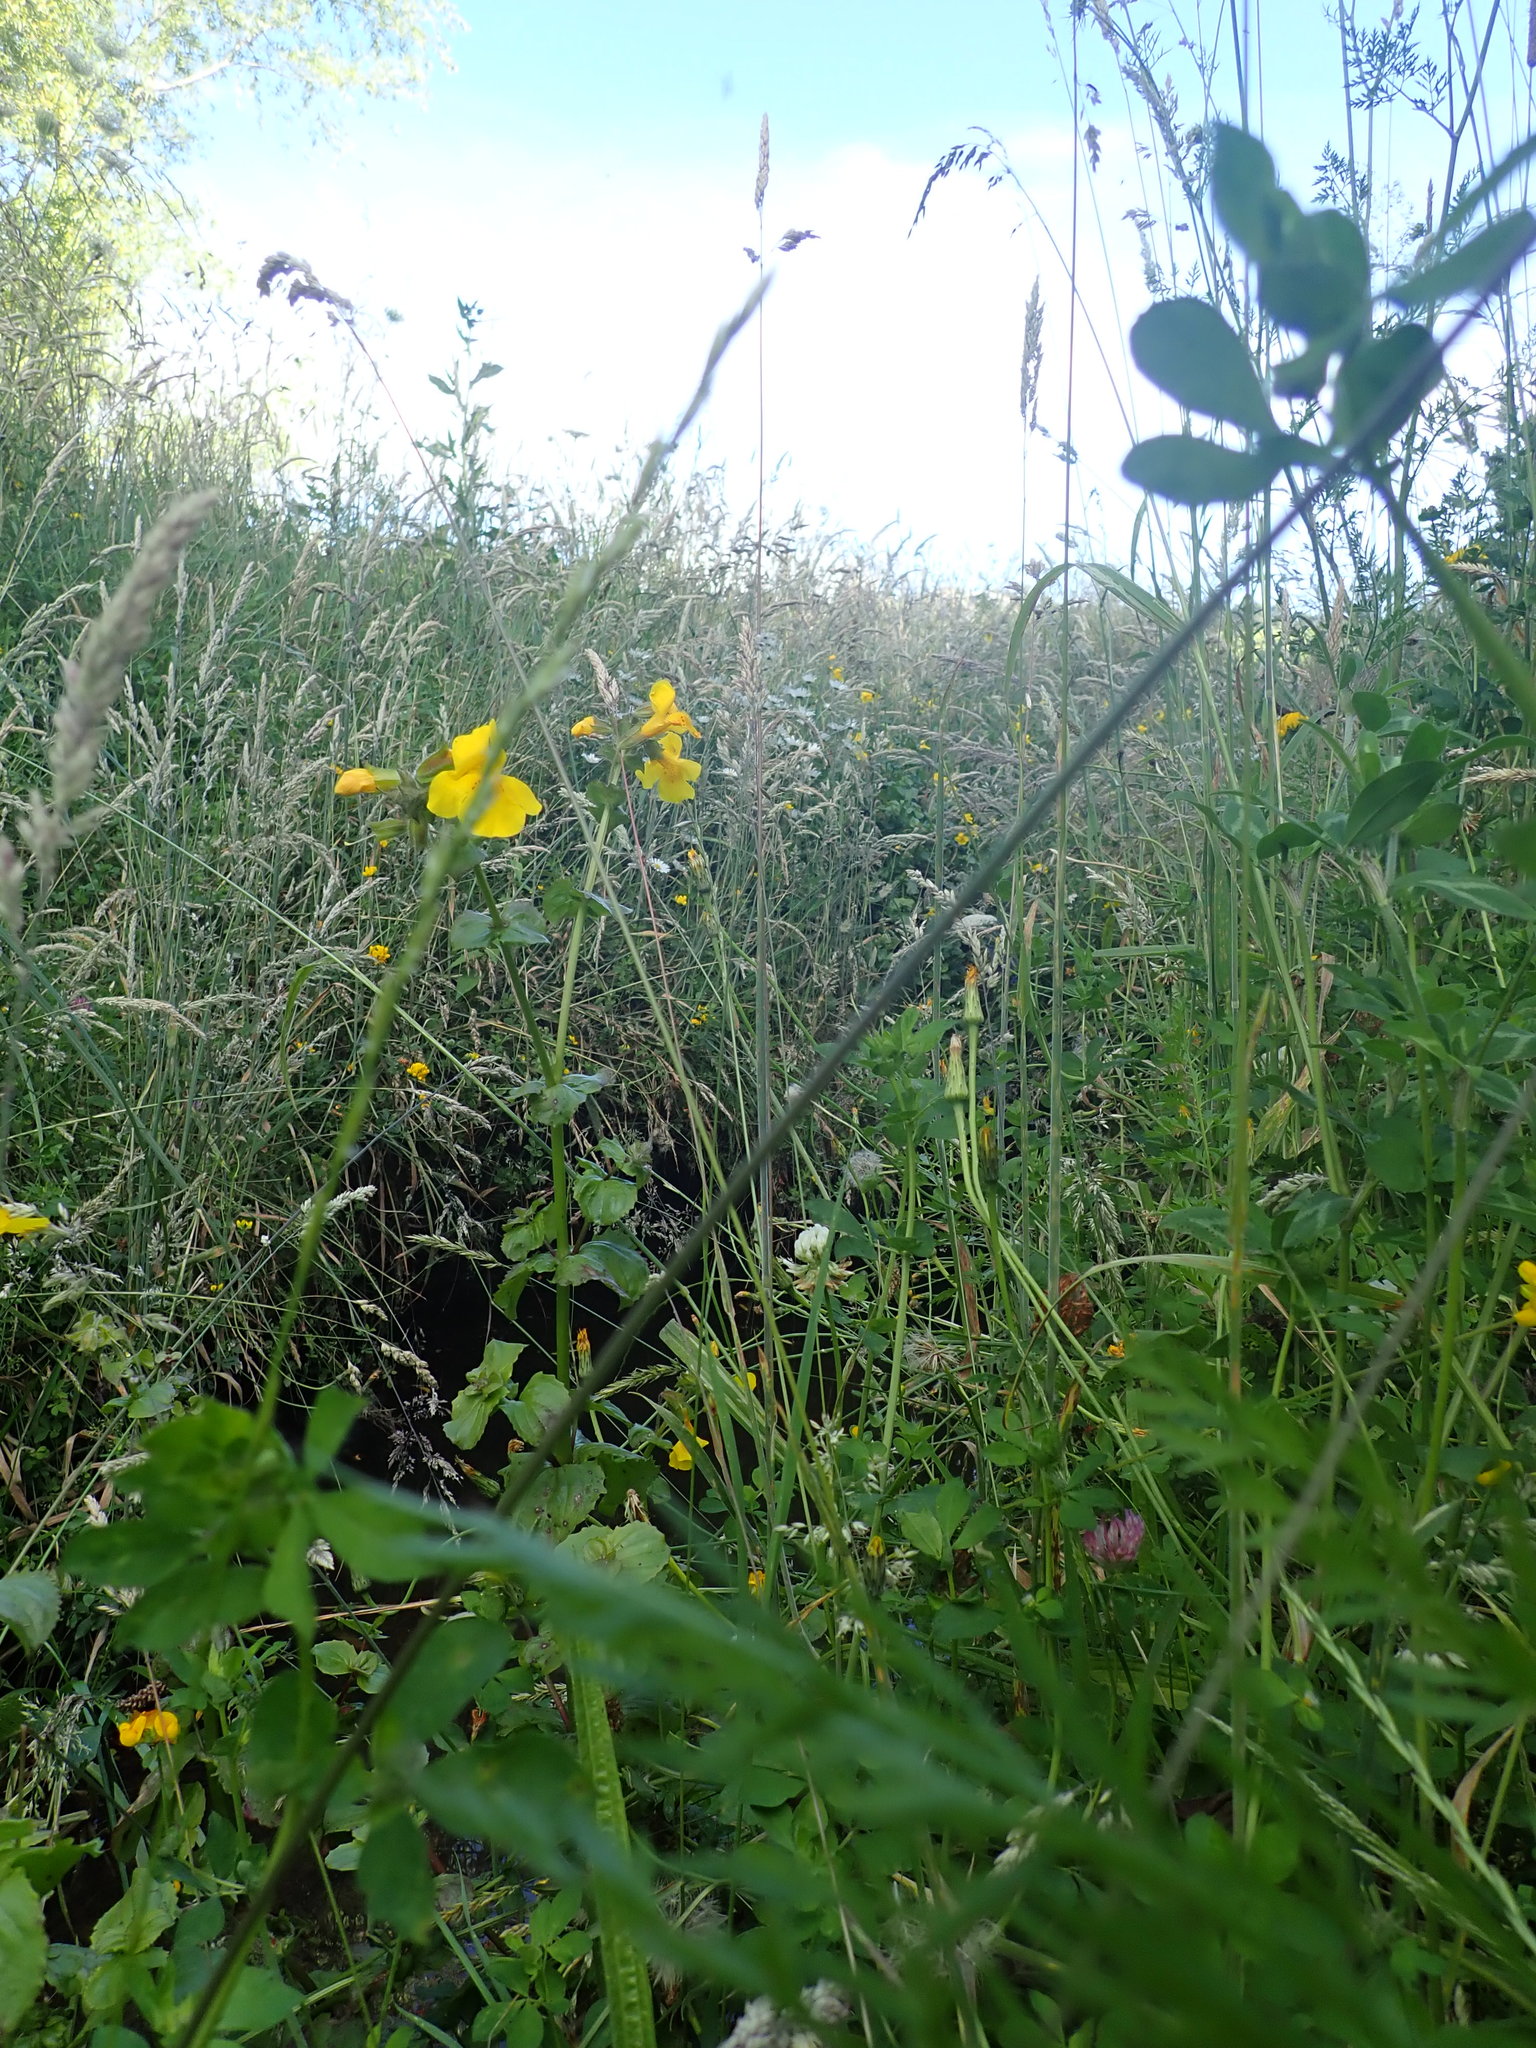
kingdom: Plantae
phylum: Tracheophyta
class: Magnoliopsida
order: Lamiales
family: Phrymaceae
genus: Erythranthe
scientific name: Erythranthe guttata
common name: Monkeyflower
